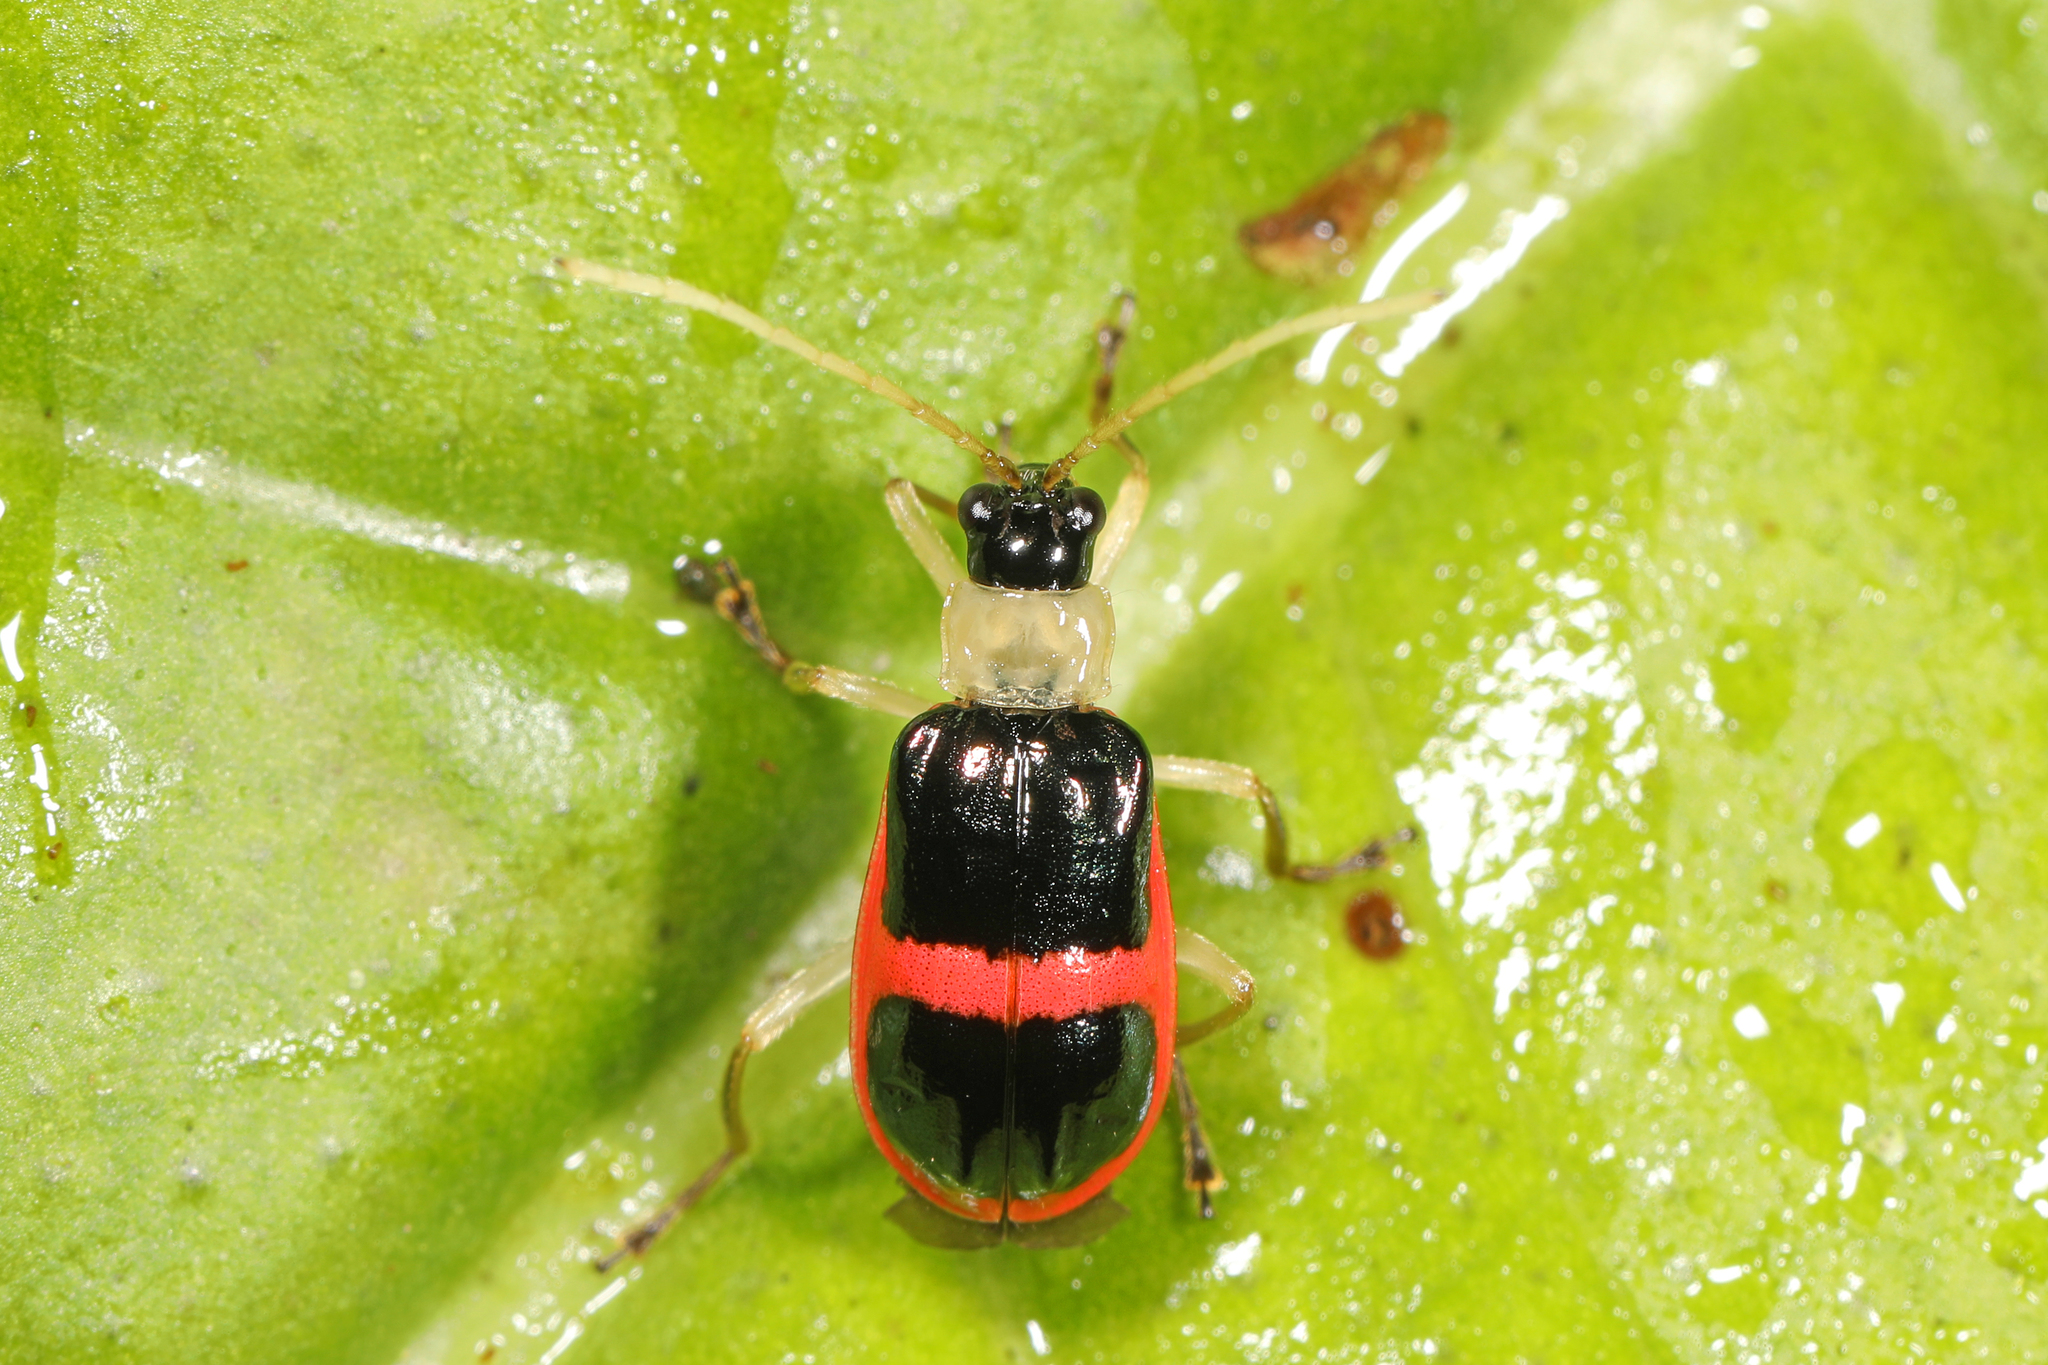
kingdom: Animalia
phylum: Arthropoda
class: Insecta
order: Coleoptera
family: Chrysomelidae
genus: Paratriarius
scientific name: Paratriarius
